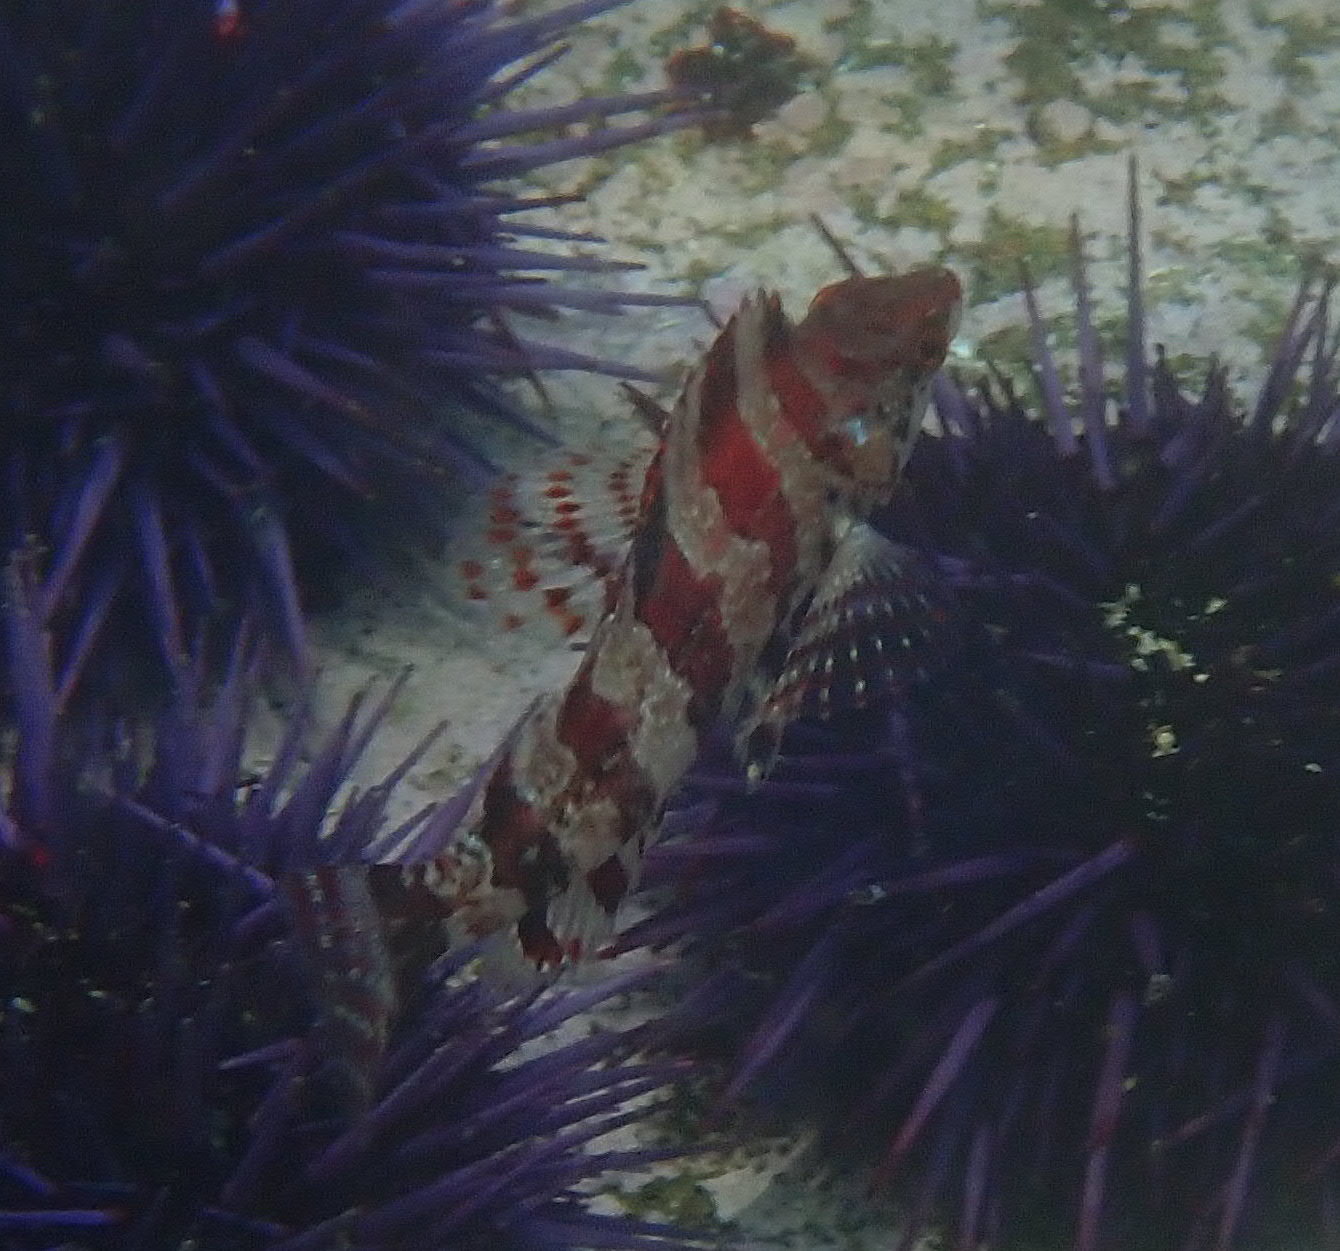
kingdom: Animalia
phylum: Chordata
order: Scorpaeniformes
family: Hexagrammidae
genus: Oxylebius
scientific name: Oxylebius pictus
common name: Painted greenling
